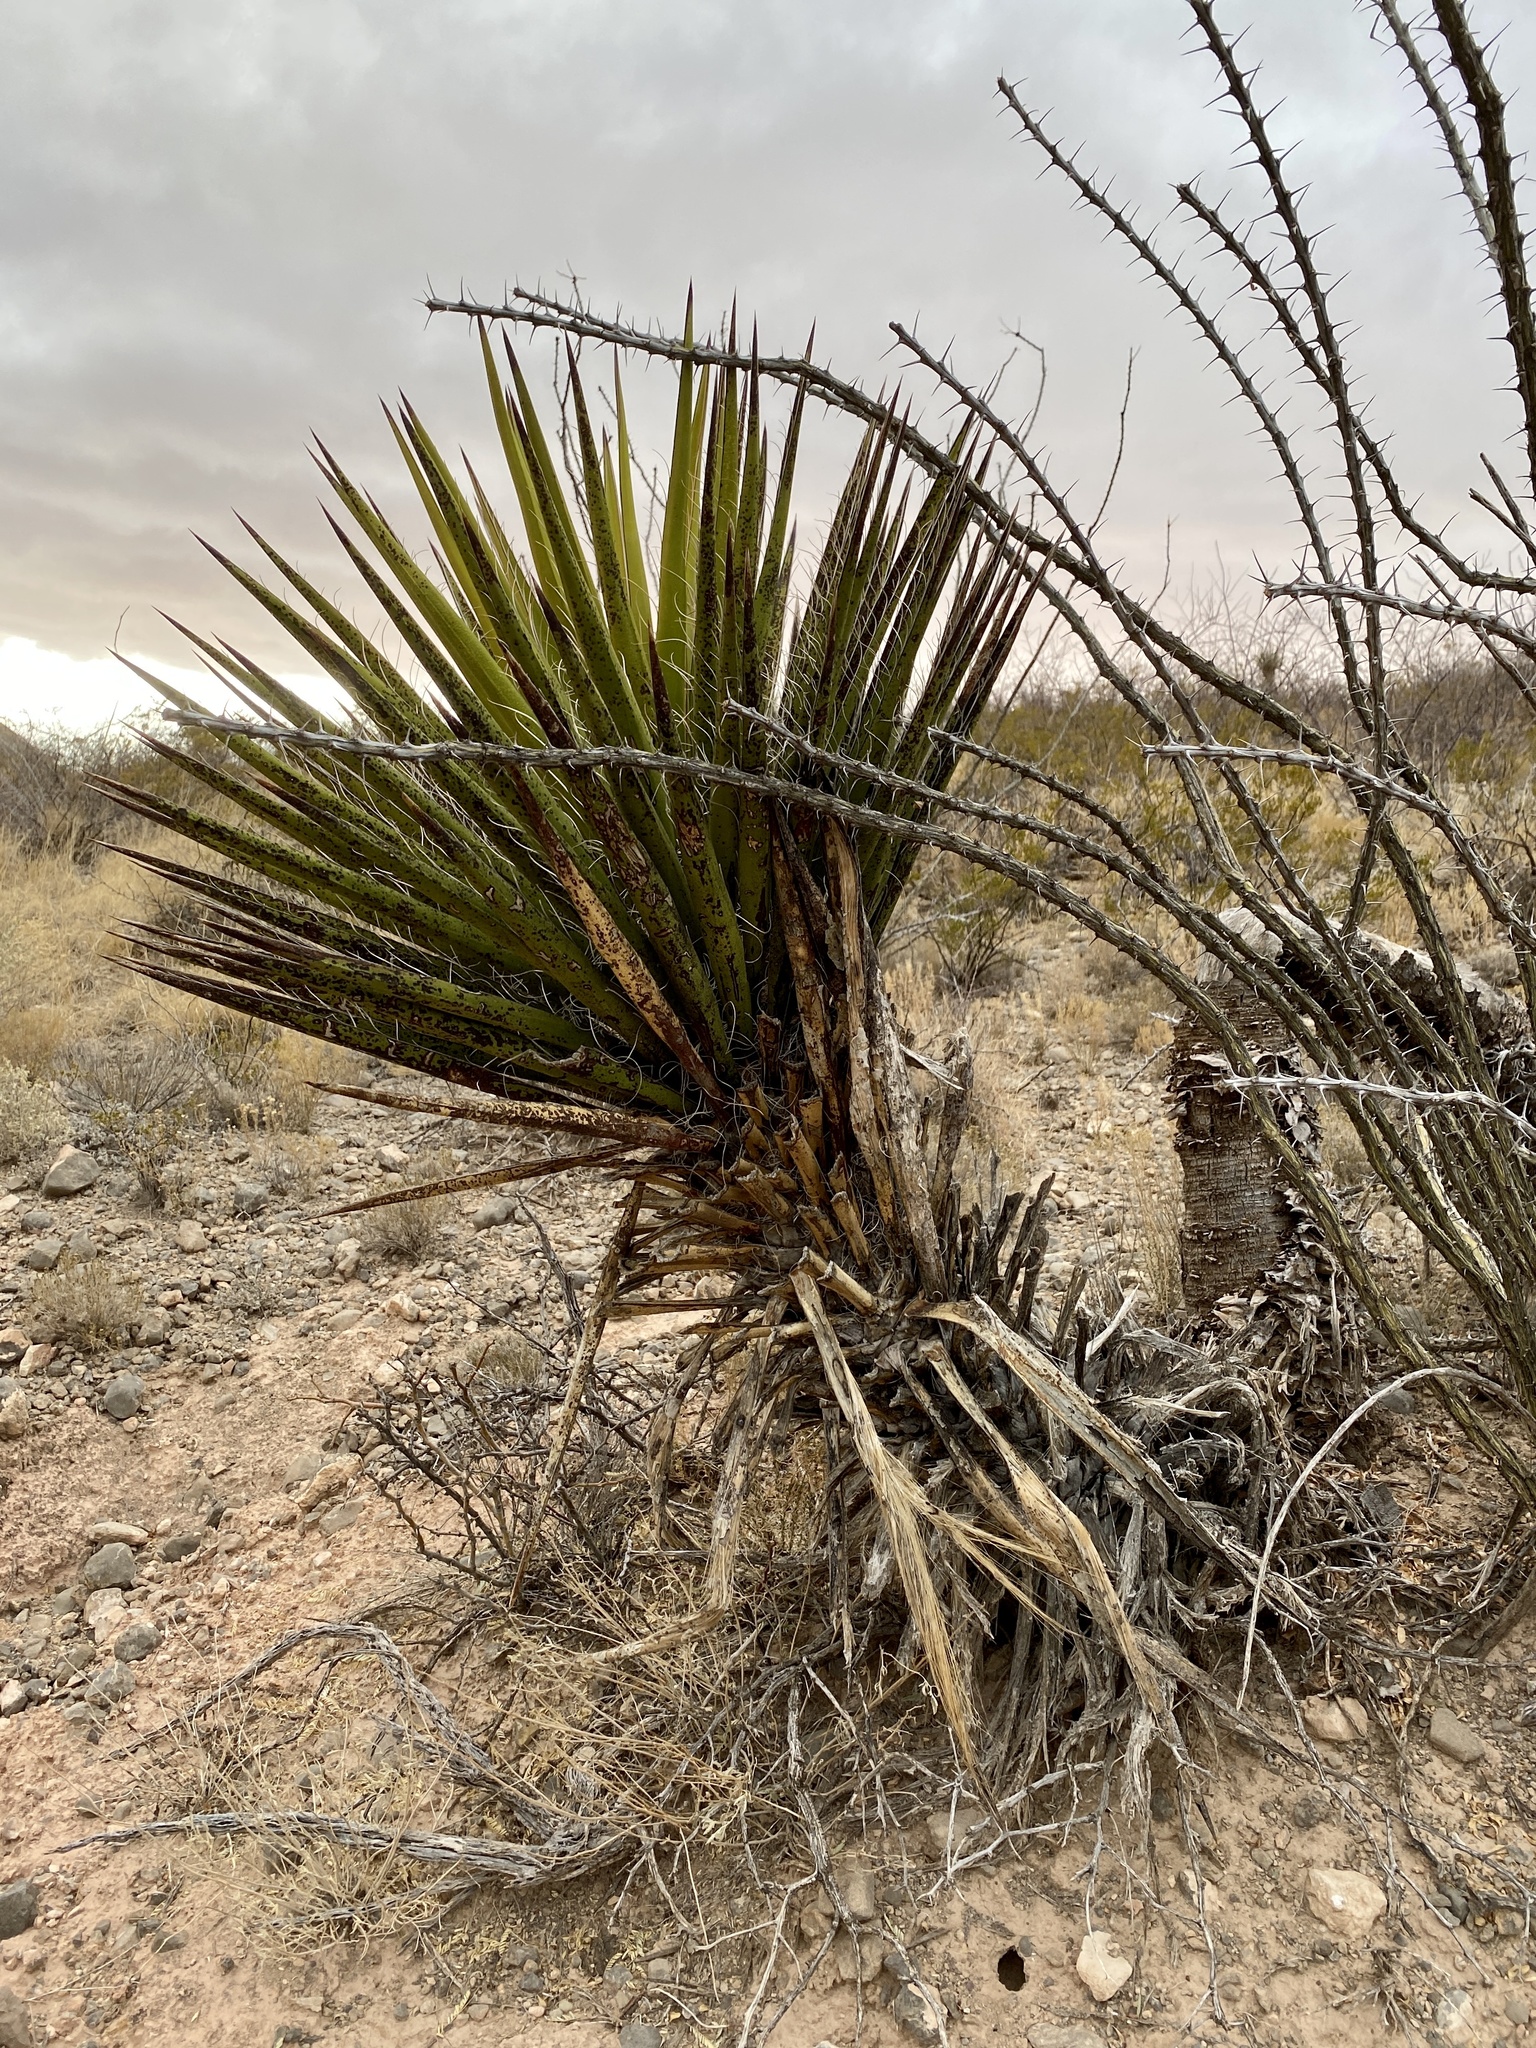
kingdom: Plantae
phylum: Tracheophyta
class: Liliopsida
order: Asparagales
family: Asparagaceae
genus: Yucca
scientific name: Yucca faxoniana
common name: Spanish dagger
